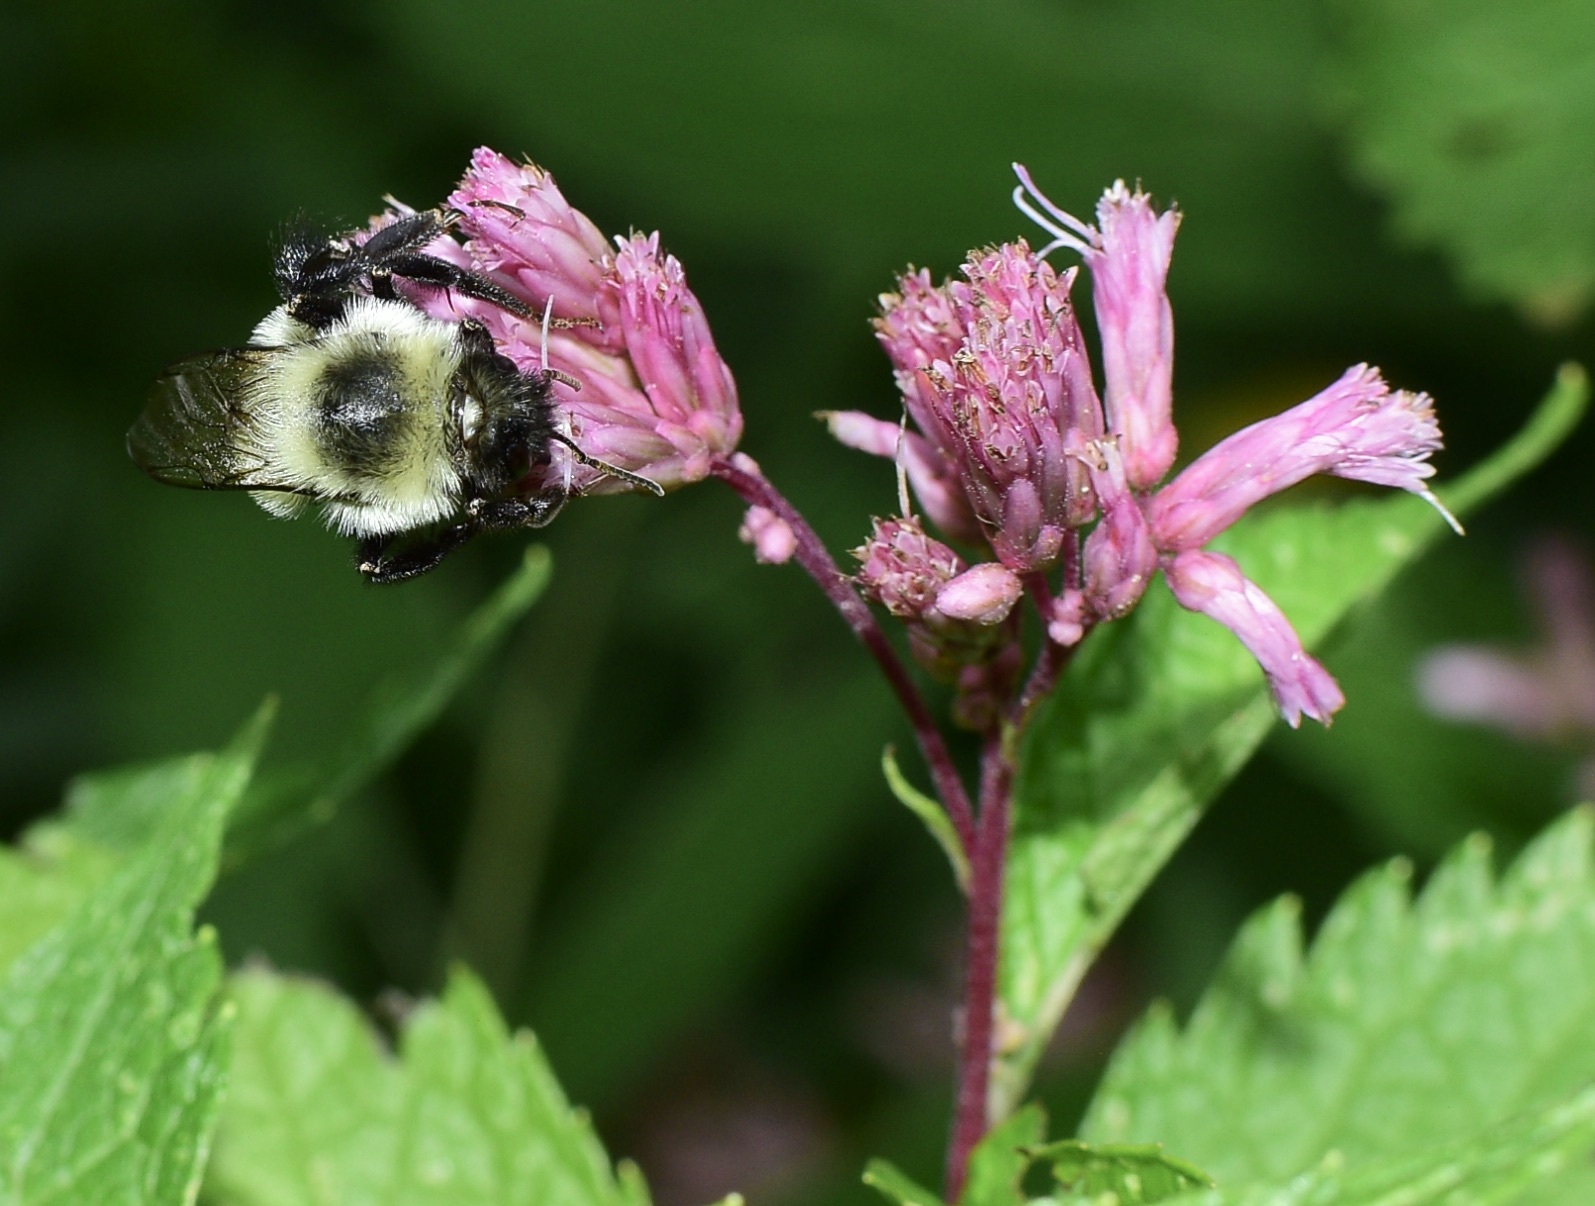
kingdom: Animalia
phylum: Arthropoda
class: Insecta
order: Hymenoptera
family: Apidae
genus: Bombus
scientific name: Bombus impatiens
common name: Common eastern bumble bee
